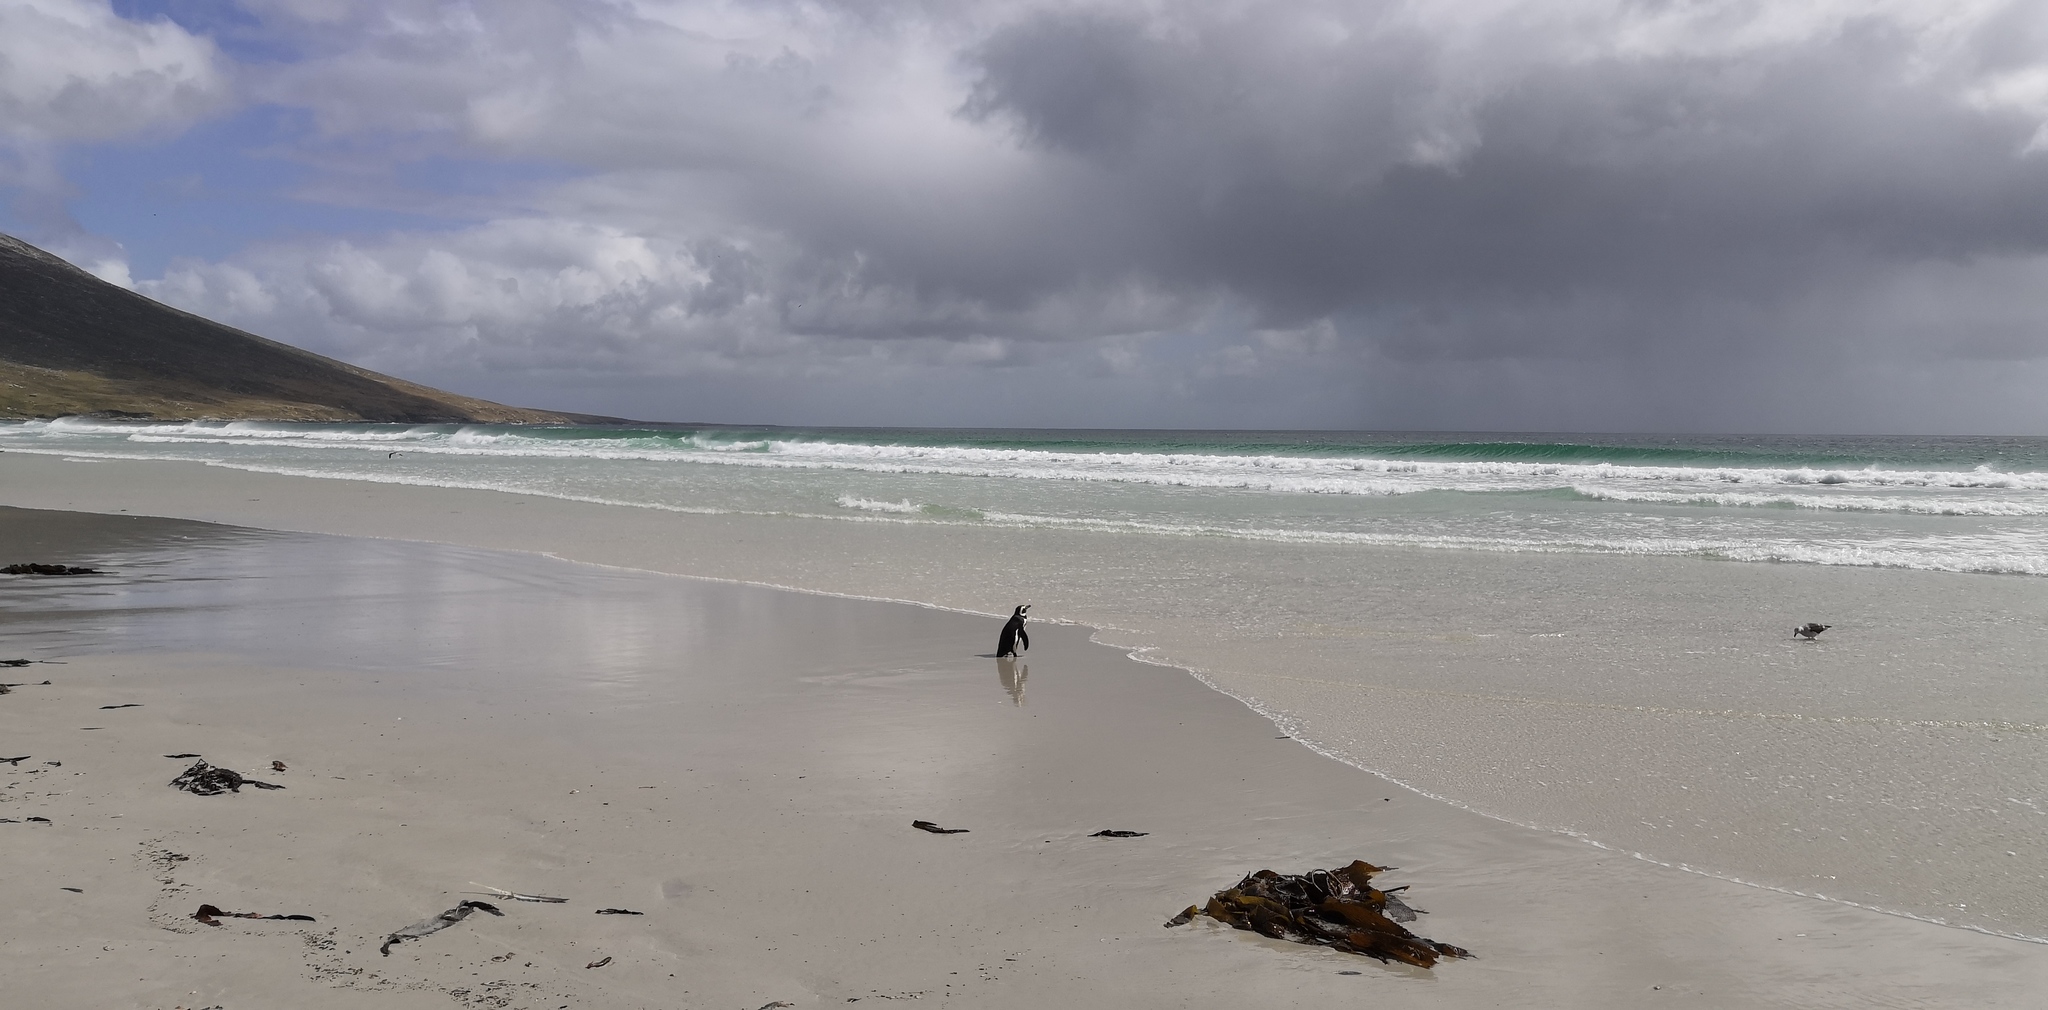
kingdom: Animalia
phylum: Chordata
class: Aves
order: Sphenisciformes
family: Spheniscidae
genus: Spheniscus
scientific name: Spheniscus magellanicus
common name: Magellanic penguin
